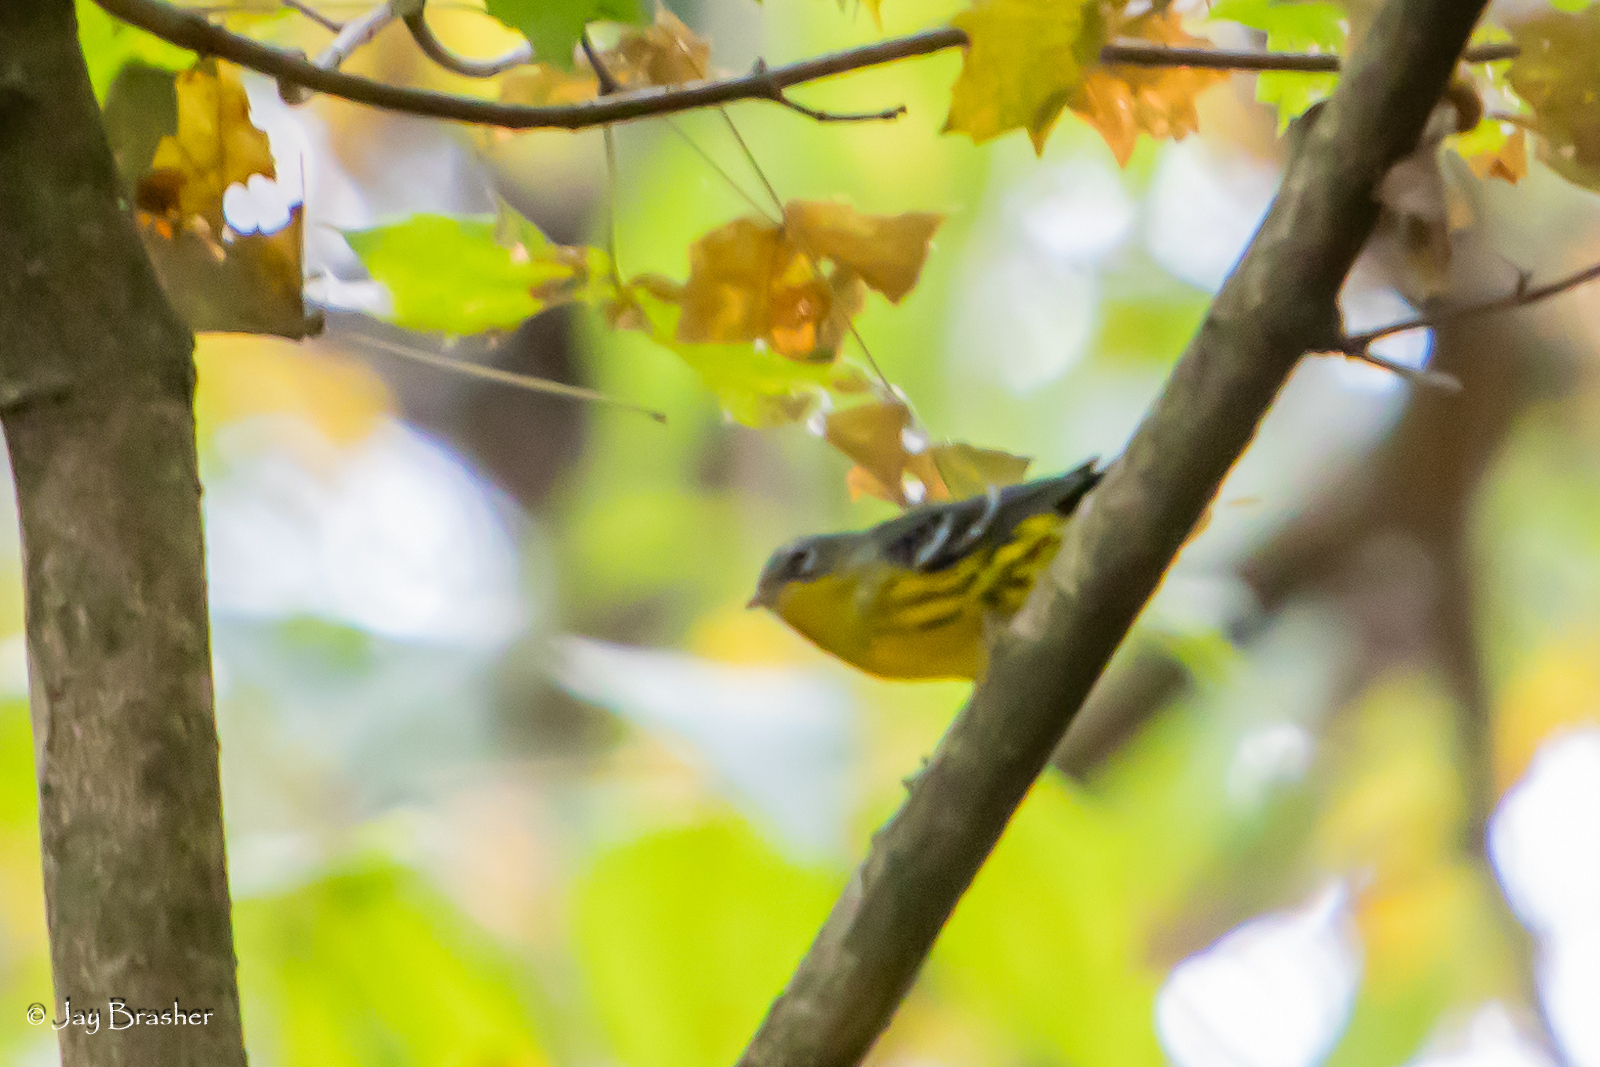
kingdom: Animalia
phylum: Chordata
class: Aves
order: Passeriformes
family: Parulidae
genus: Setophaga
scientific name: Setophaga magnolia
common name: Magnolia warbler
